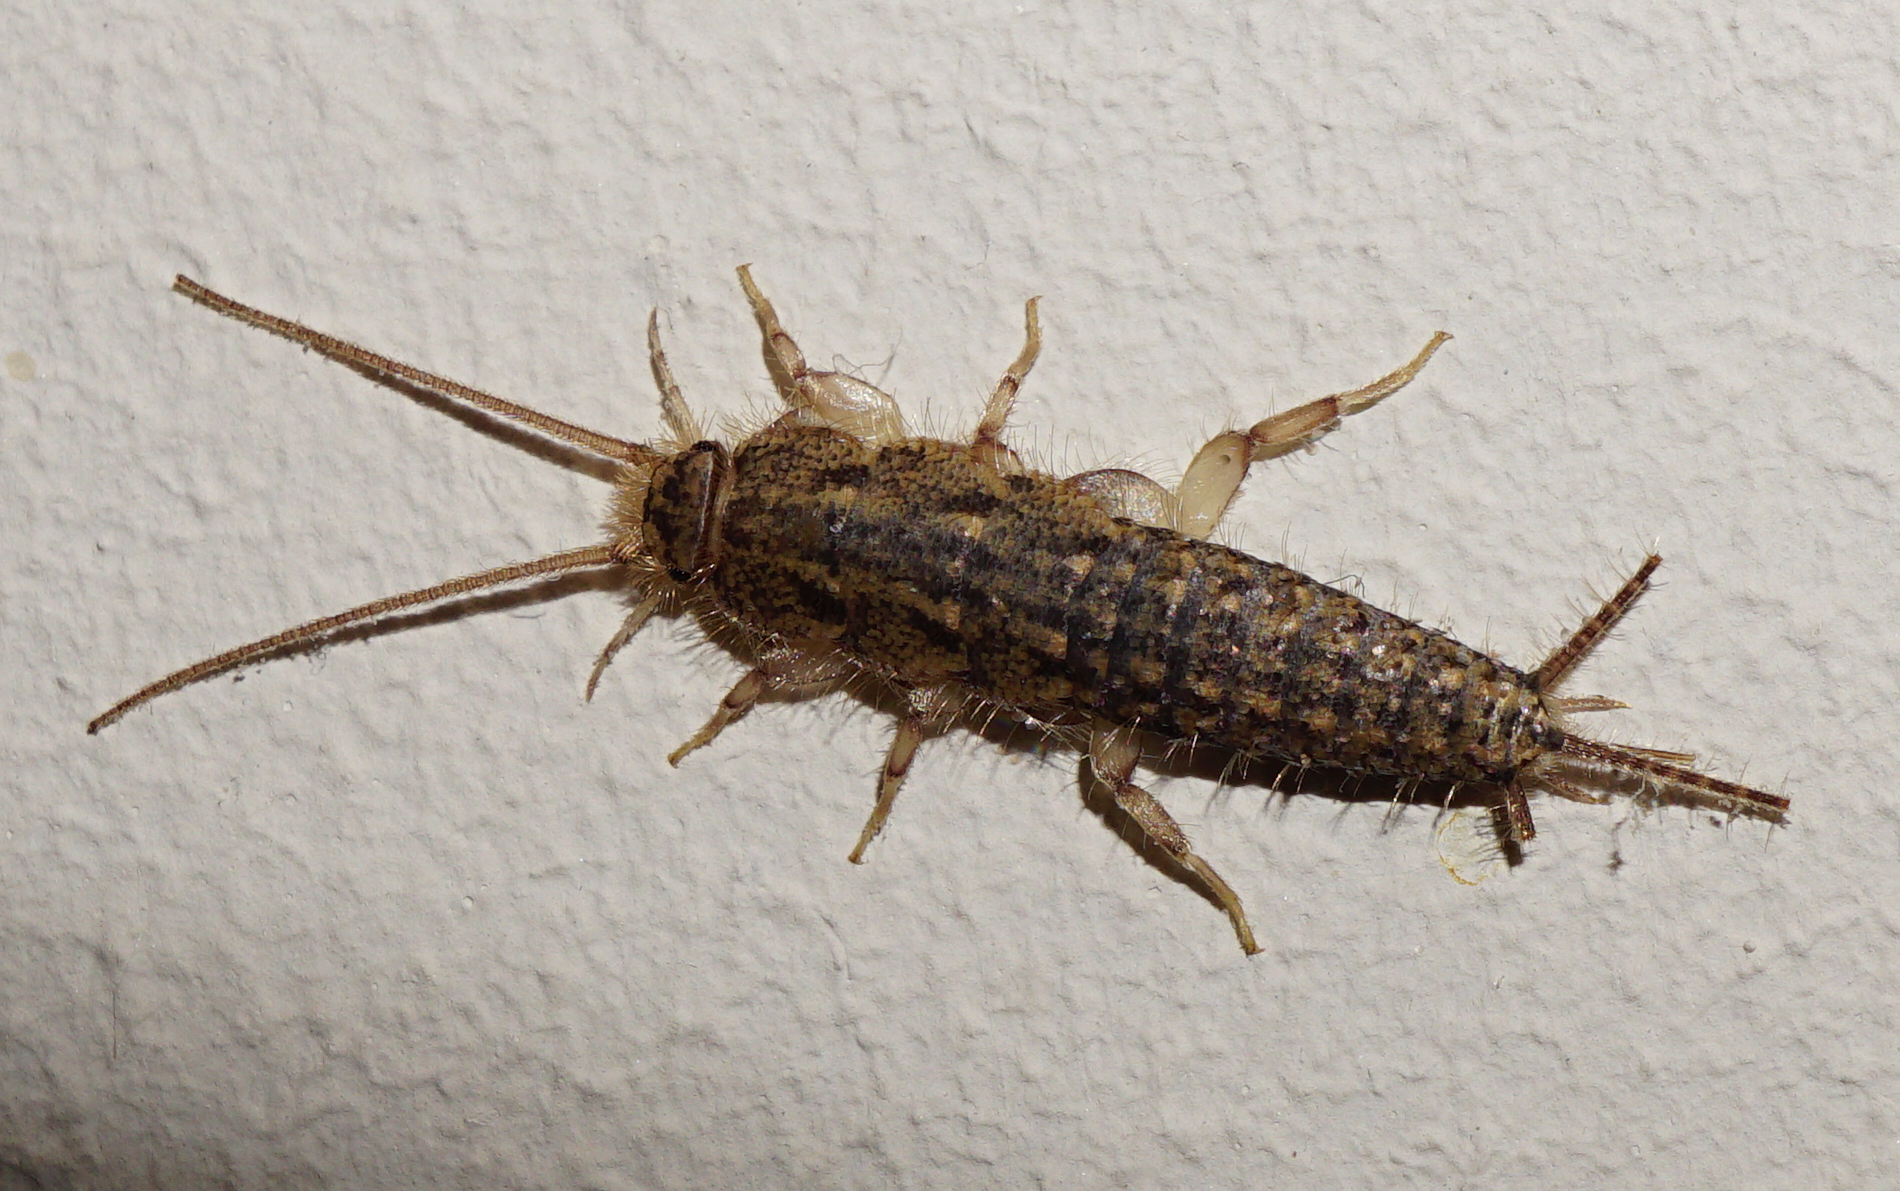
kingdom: Animalia
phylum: Arthropoda
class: Insecta
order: Zygentoma
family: Lepismatidae
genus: Ctenolepisma
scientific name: Ctenolepisma lineata
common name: Four-lined silverfish
